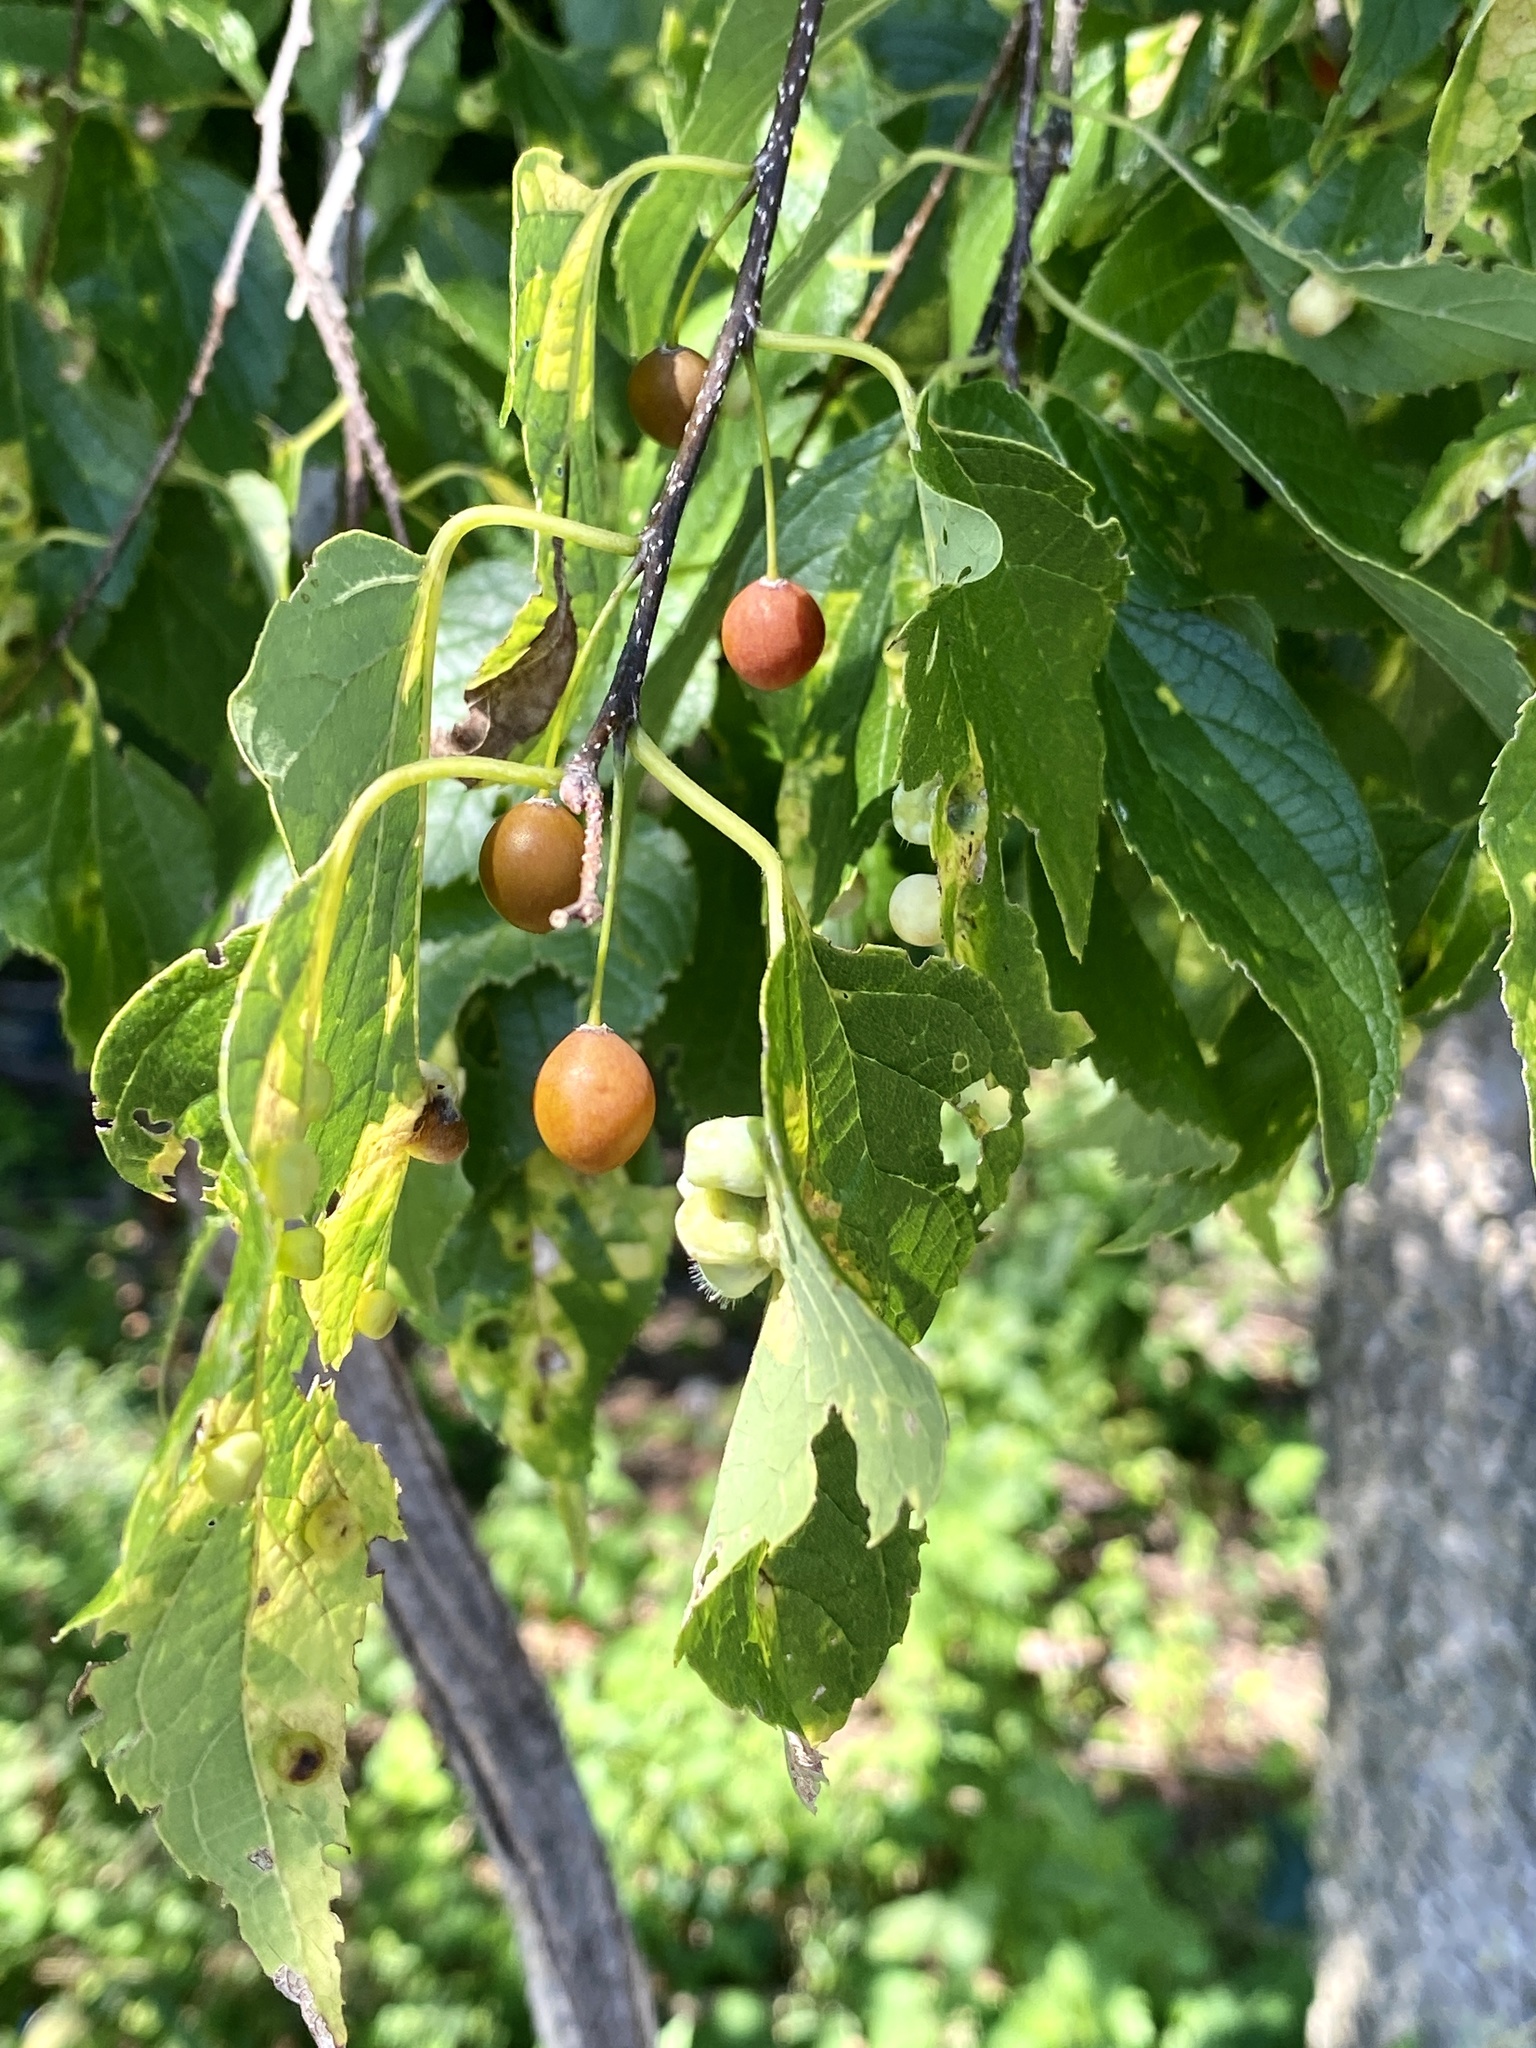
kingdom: Plantae
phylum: Tracheophyta
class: Magnoliopsida
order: Rosales
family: Cannabaceae
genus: Celtis
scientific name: Celtis occidentalis
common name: Common hackberry
